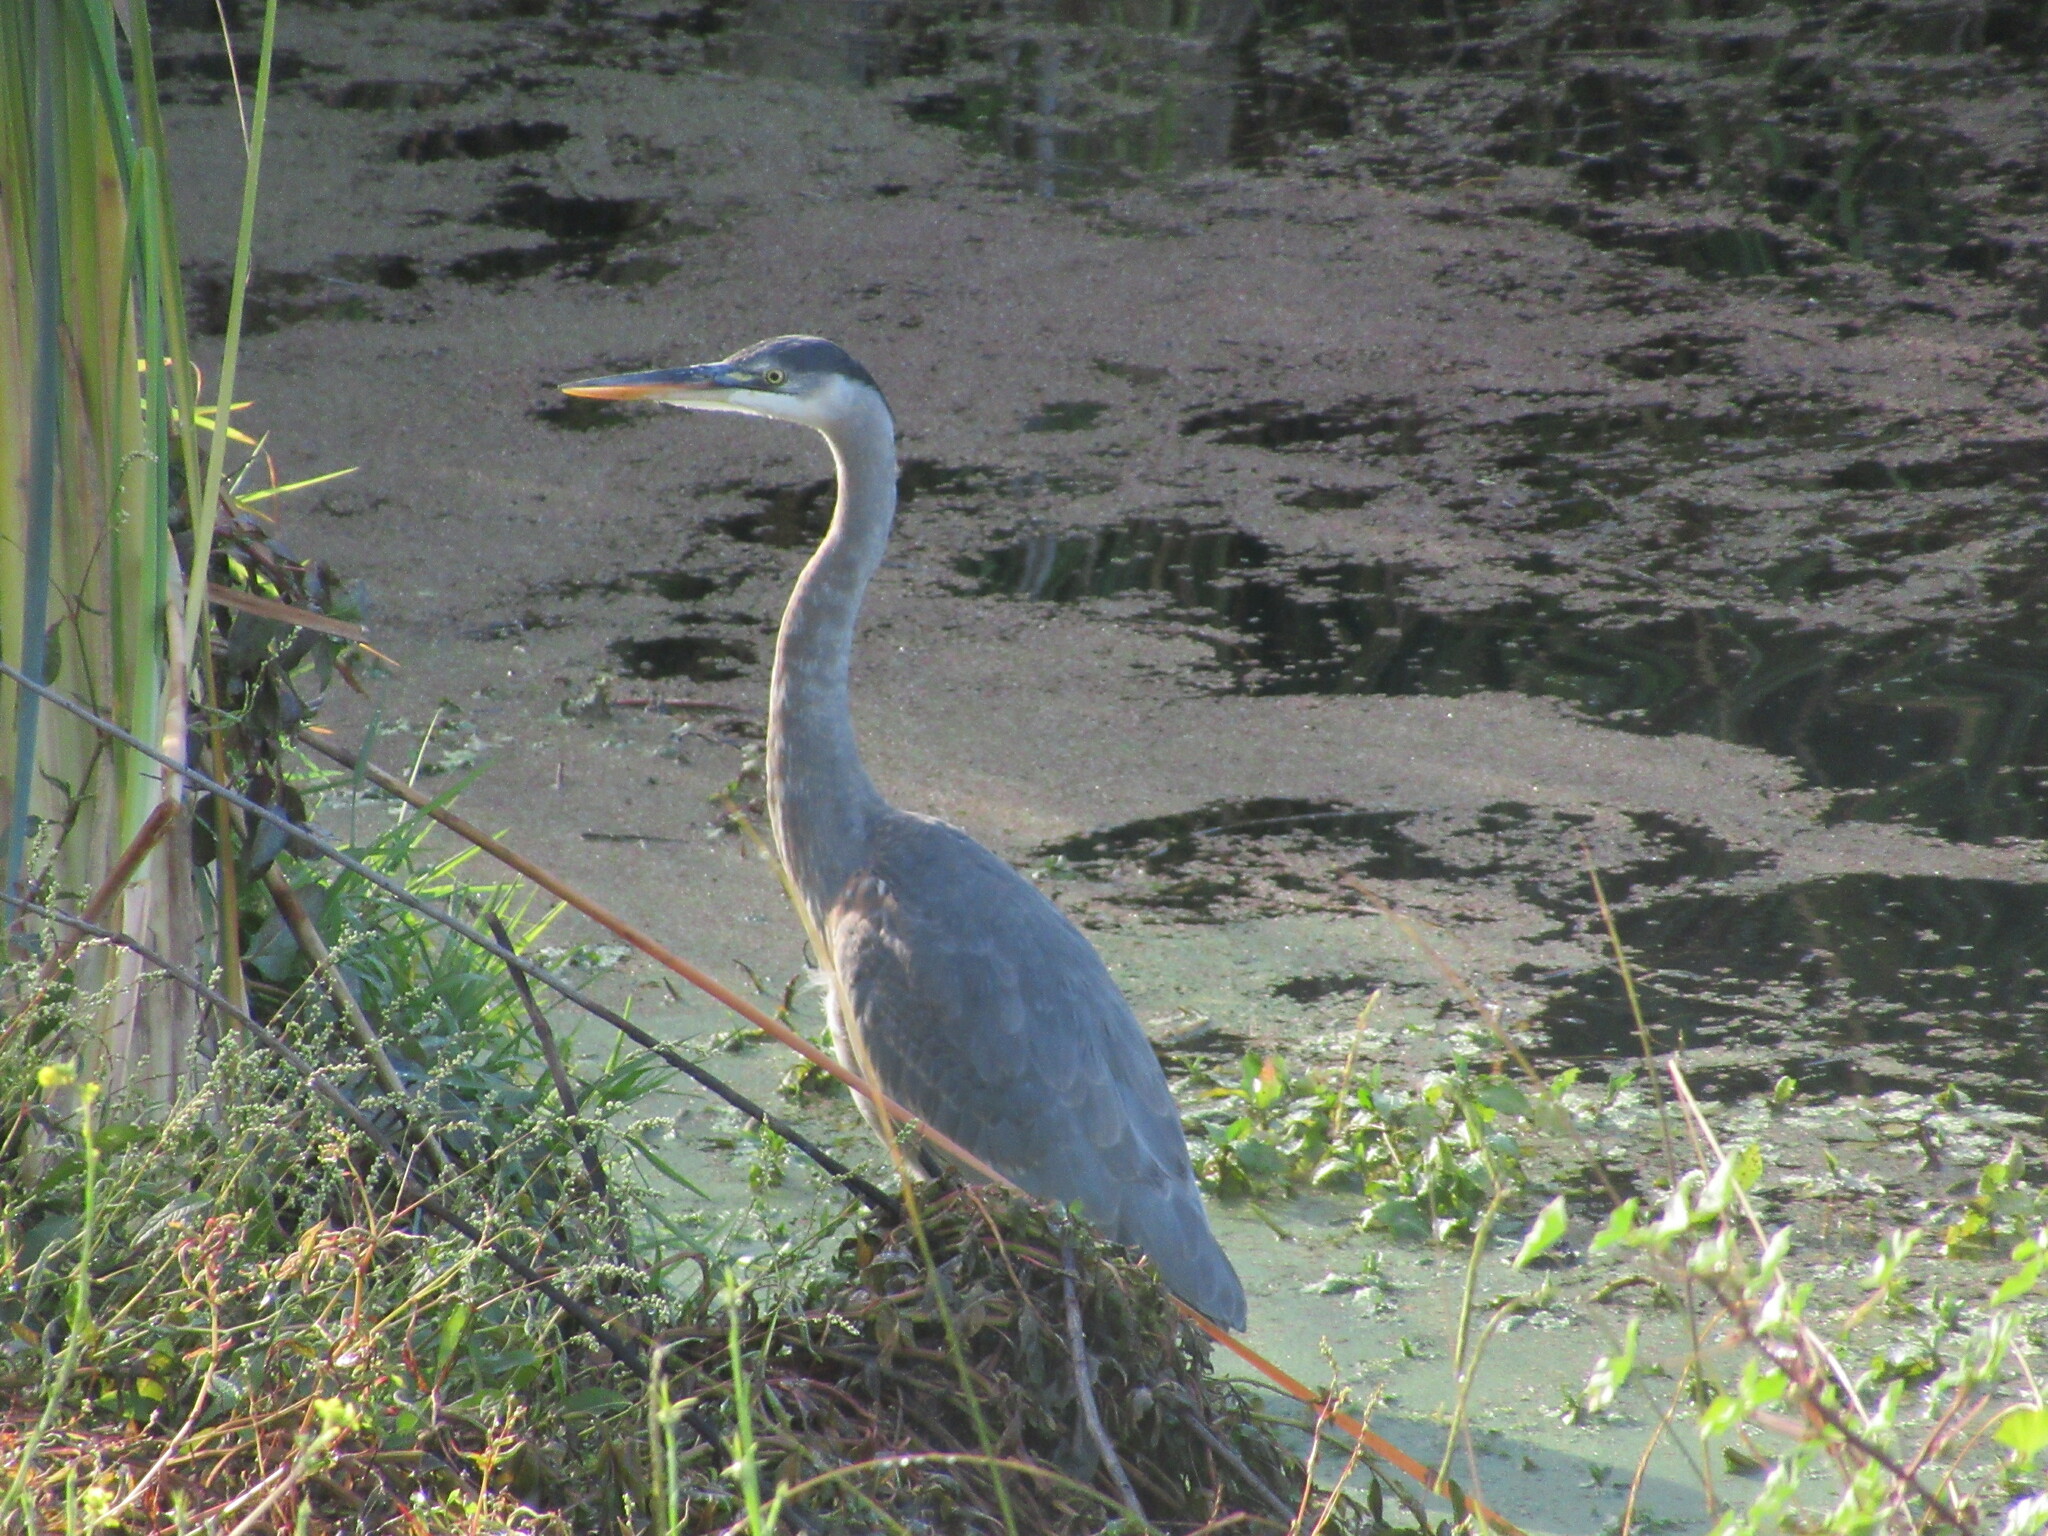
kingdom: Animalia
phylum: Chordata
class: Aves
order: Pelecaniformes
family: Ardeidae
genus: Ardea
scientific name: Ardea herodias
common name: Great blue heron
